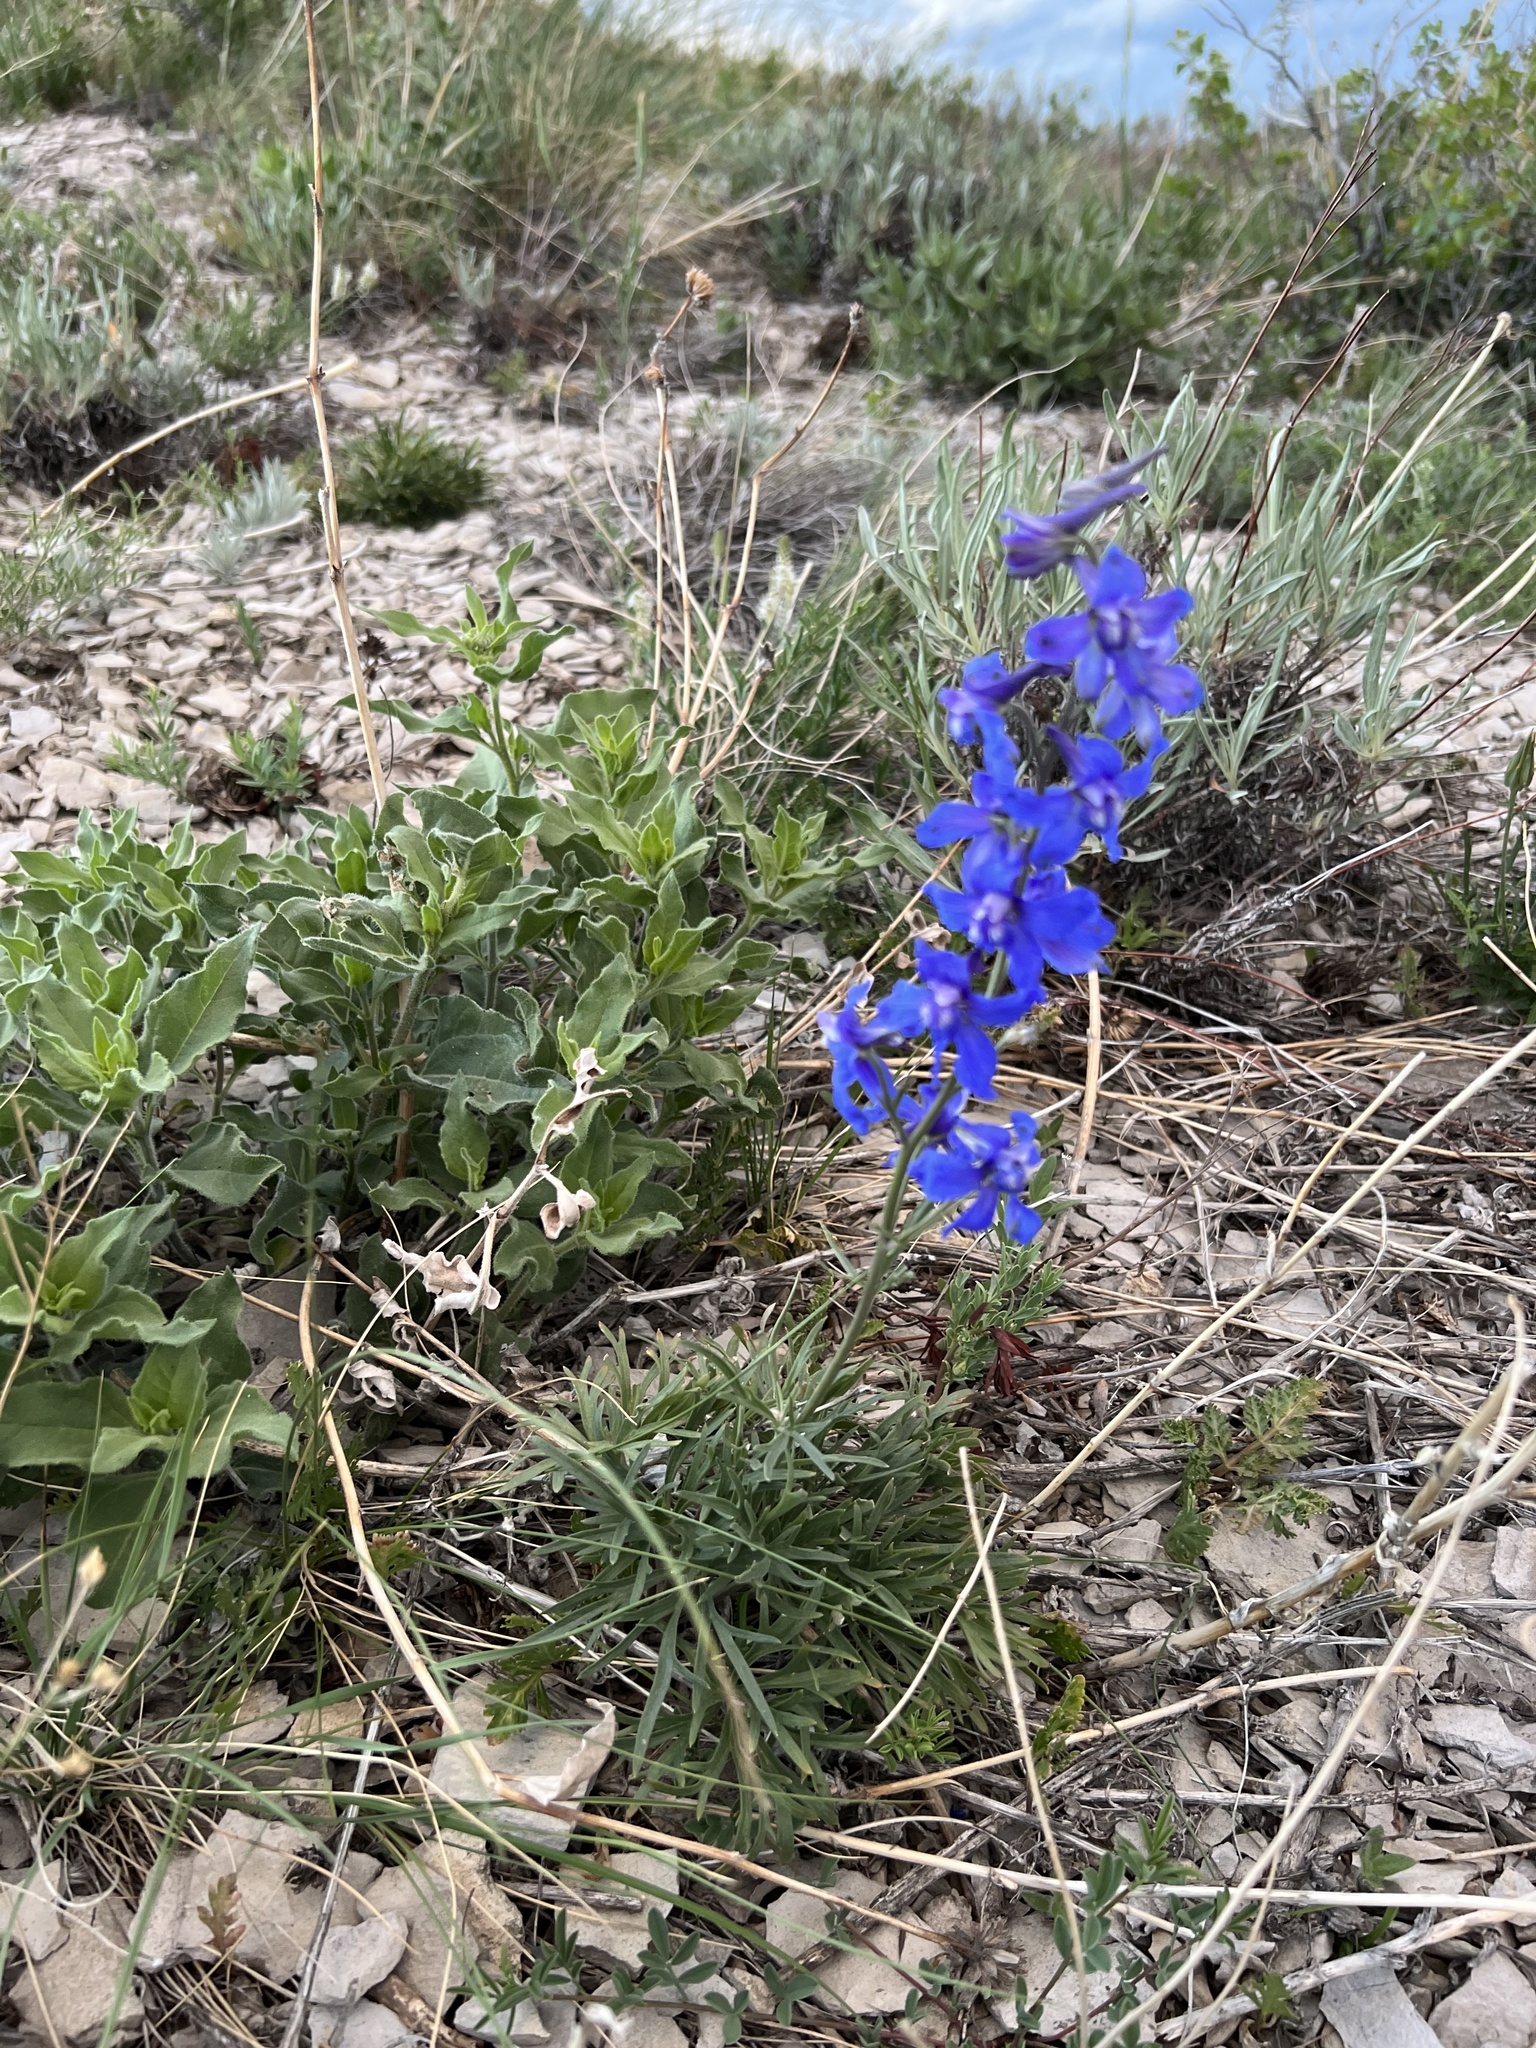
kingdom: Plantae
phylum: Tracheophyta
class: Magnoliopsida
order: Ranunculales
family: Ranunculaceae
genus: Delphinium
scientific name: Delphinium nuttallianum
